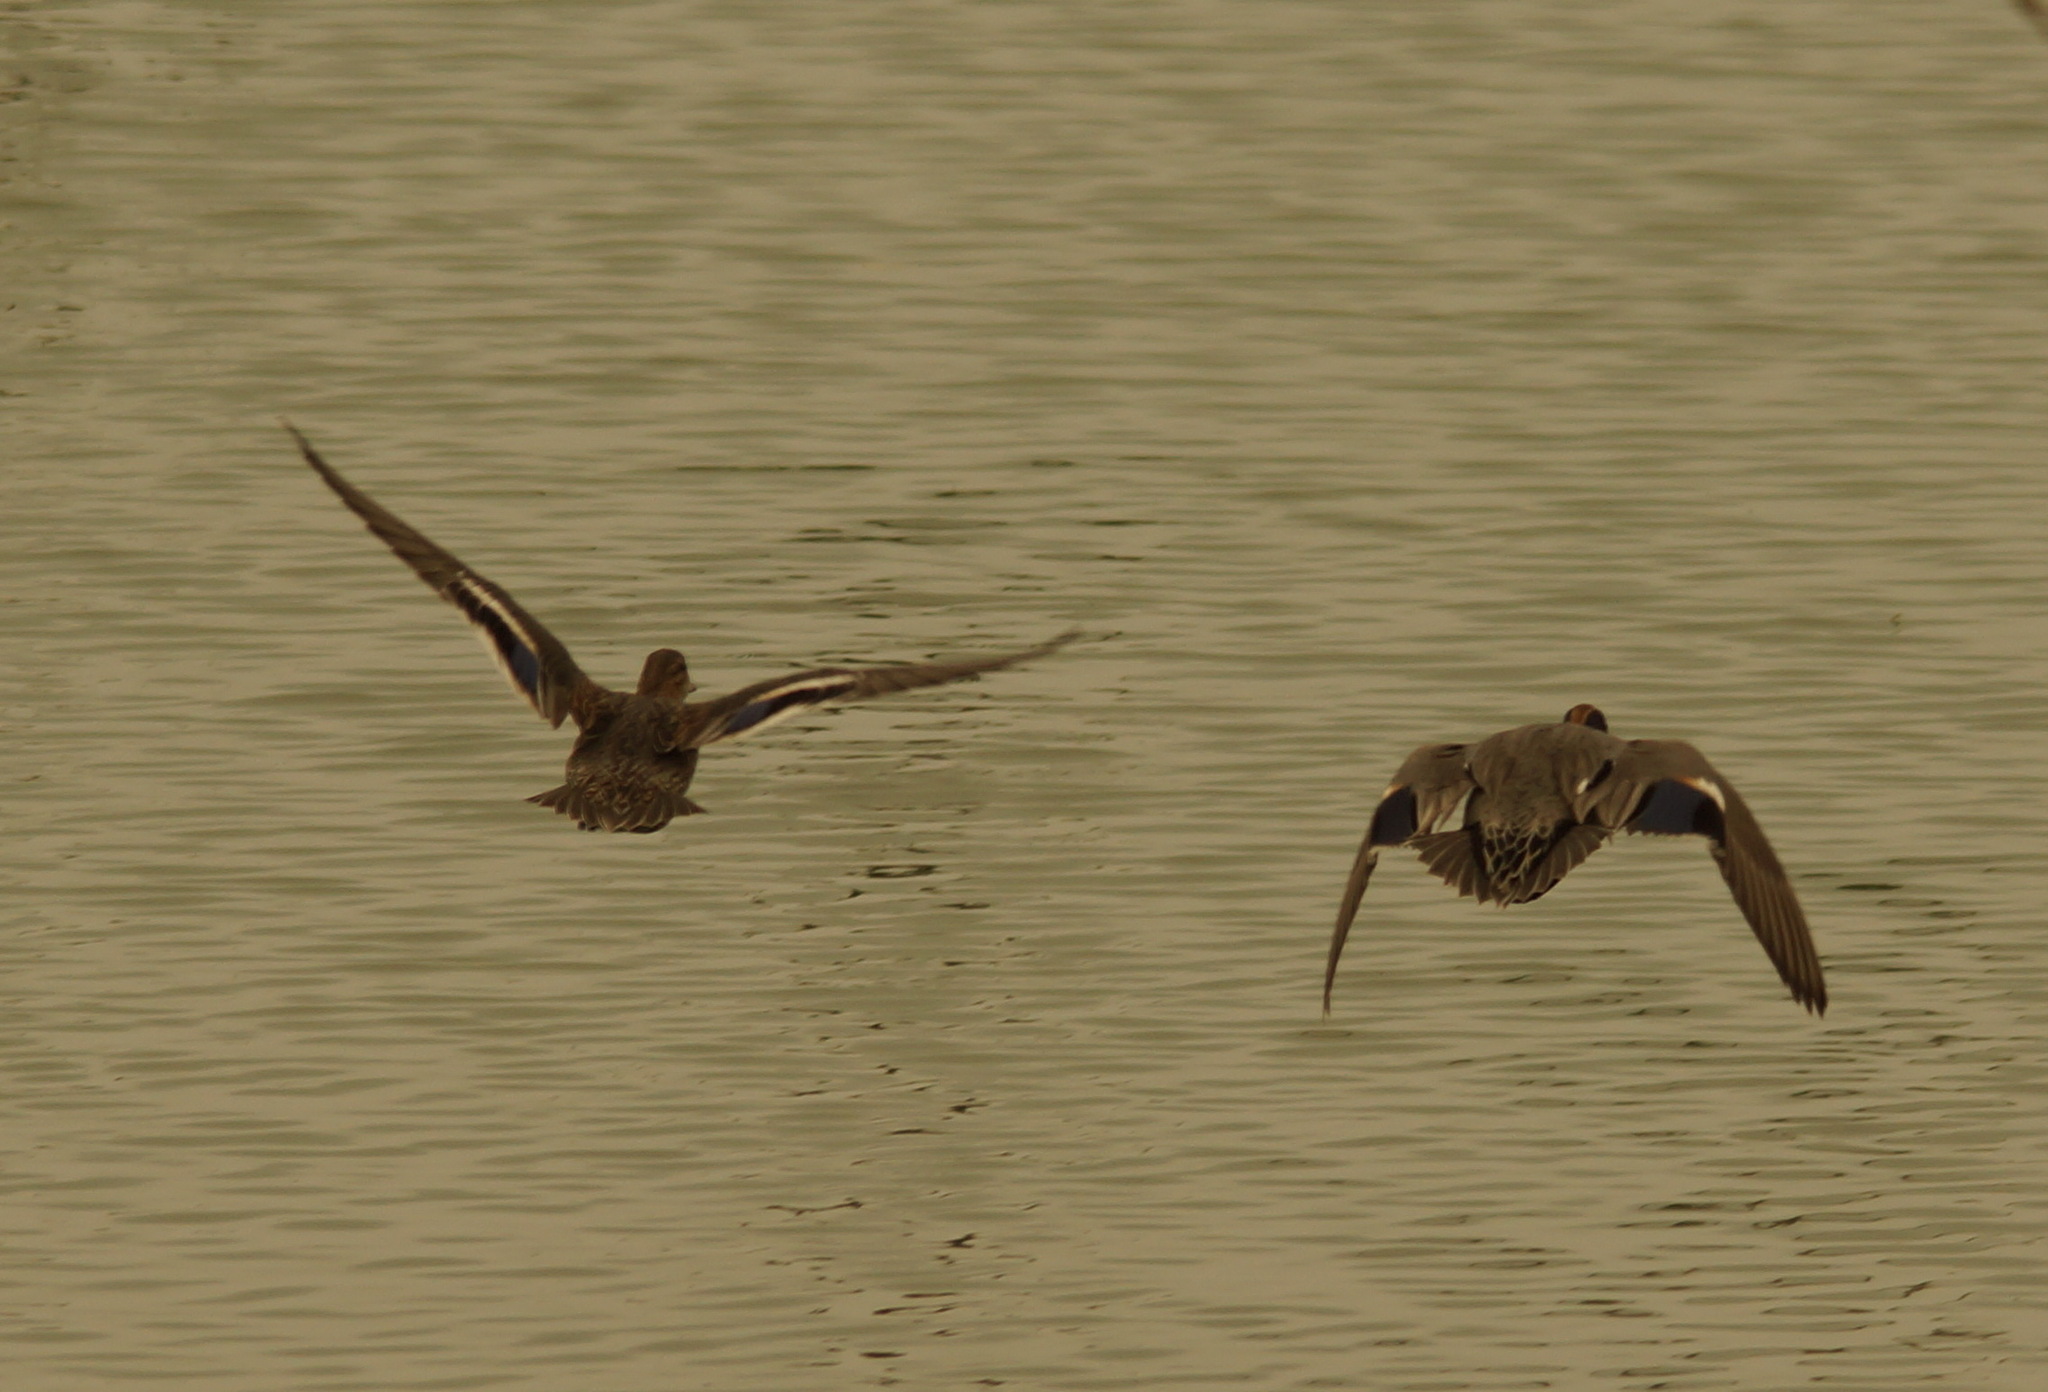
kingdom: Animalia
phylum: Chordata
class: Aves
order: Anseriformes
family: Anatidae
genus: Anas
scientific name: Anas crecca
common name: Eurasian teal
